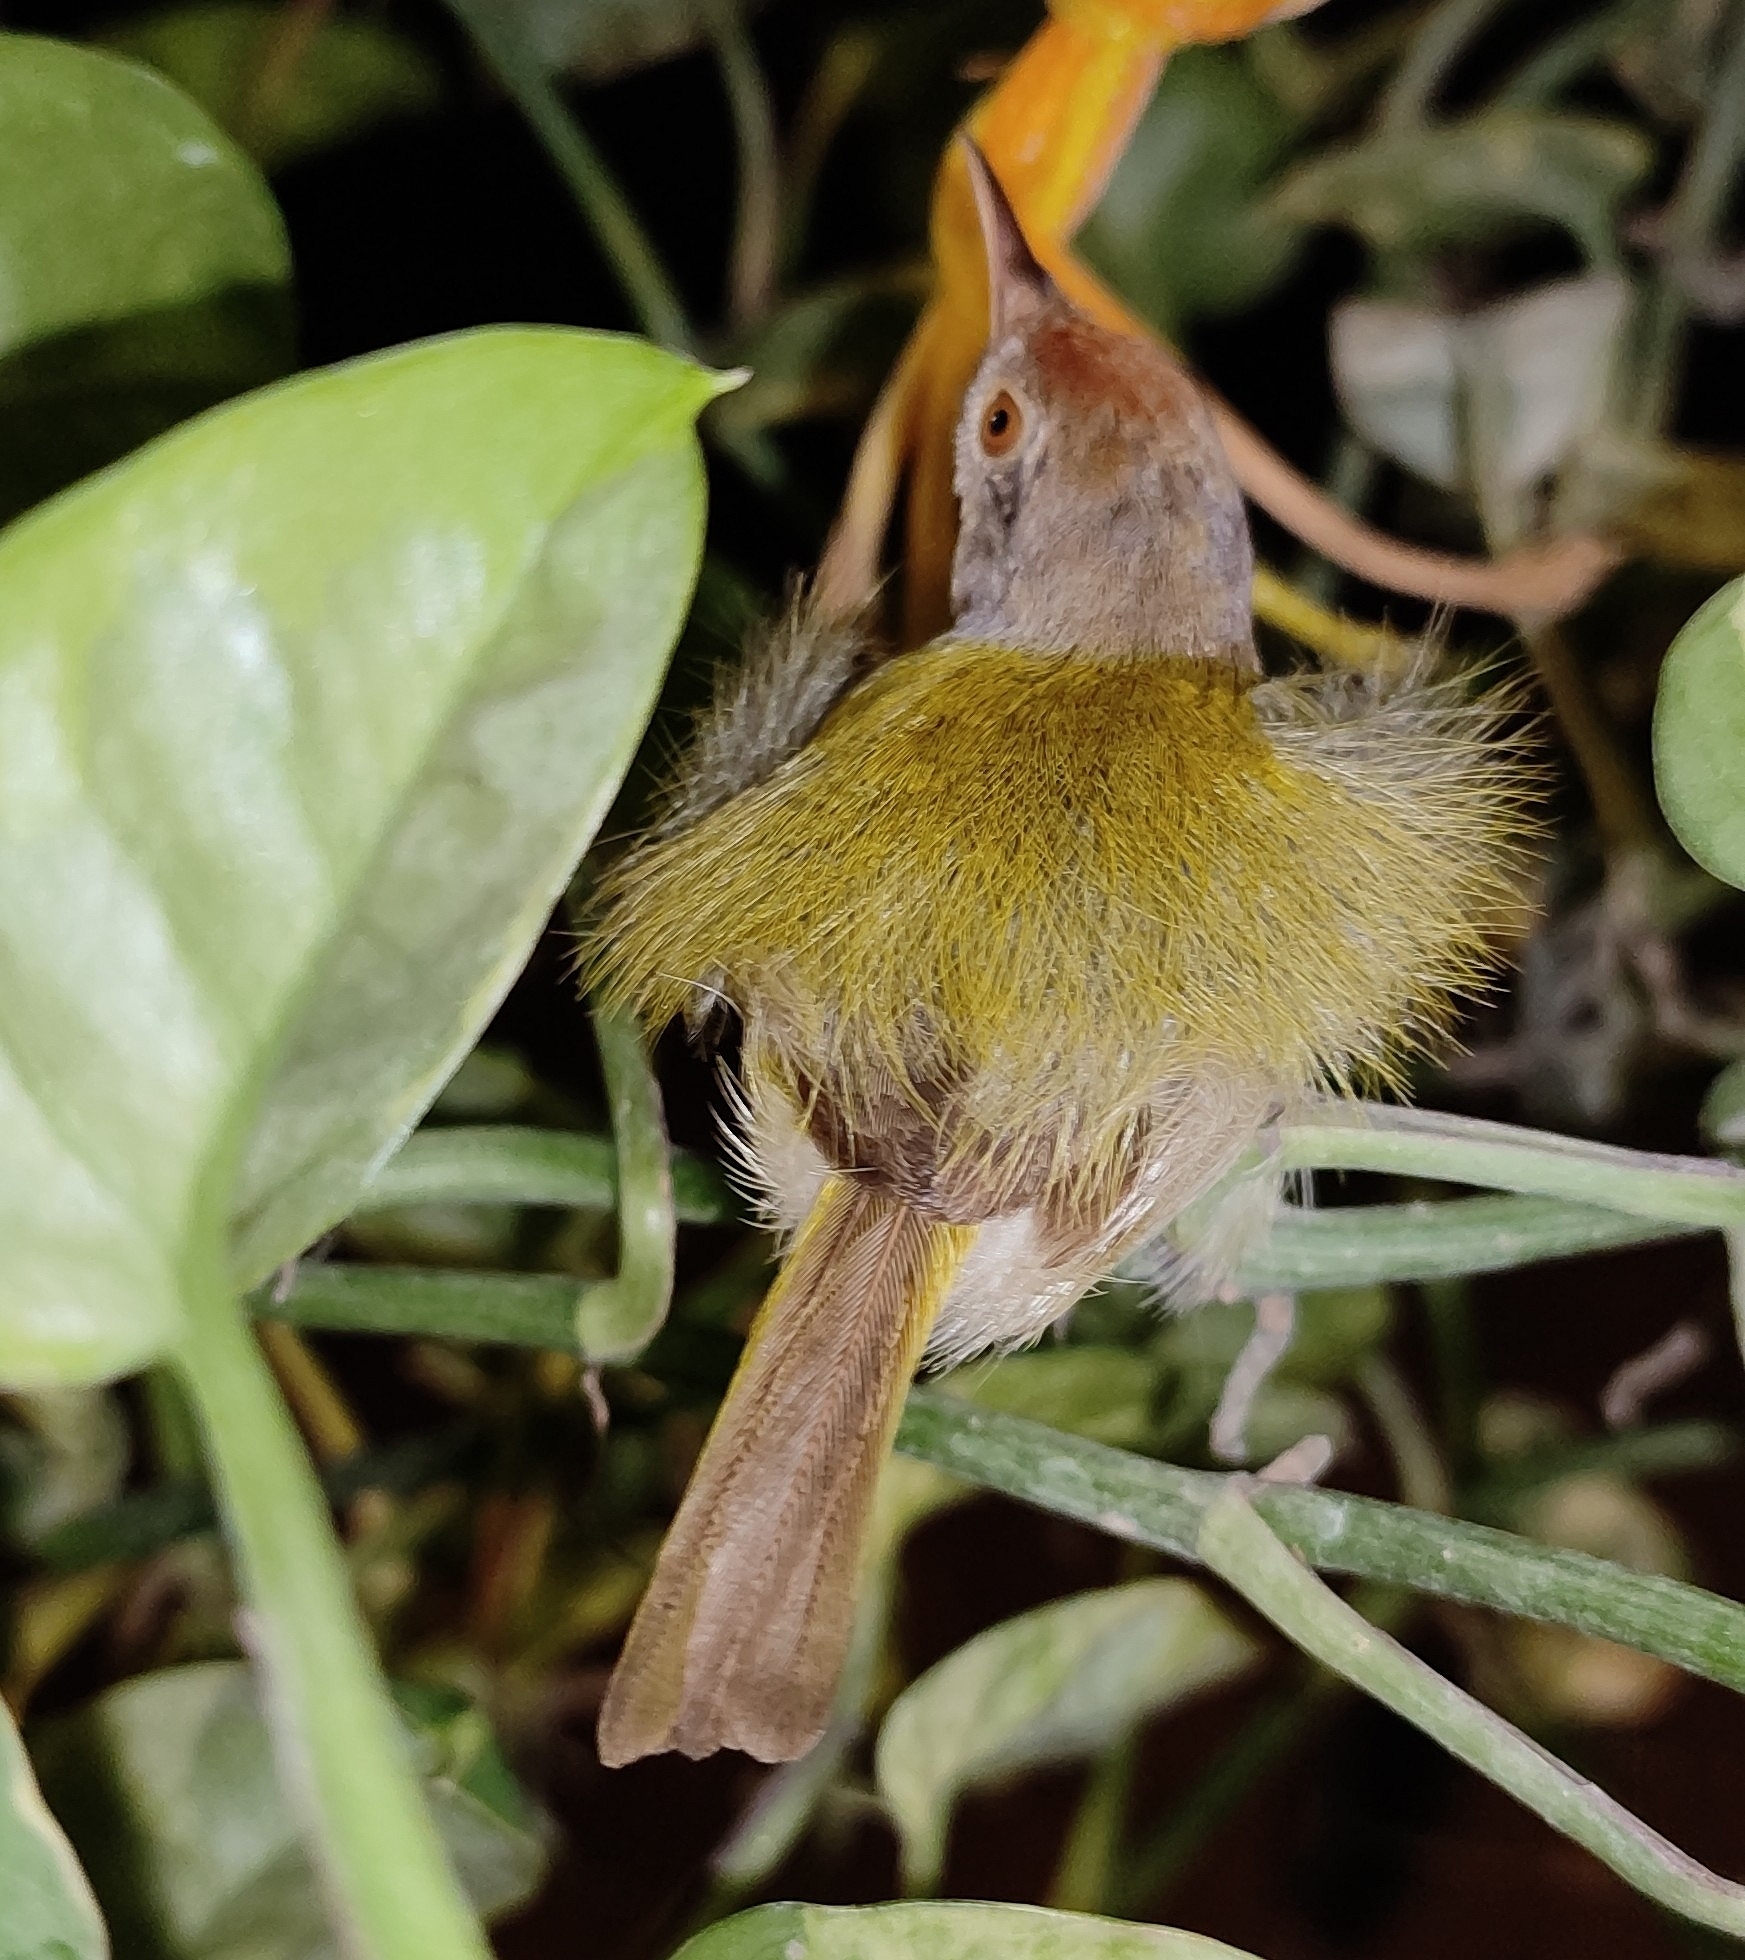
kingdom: Animalia
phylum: Chordata
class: Aves
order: Passeriformes
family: Cisticolidae
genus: Orthotomus
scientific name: Orthotomus sutorius
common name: Common tailorbird
